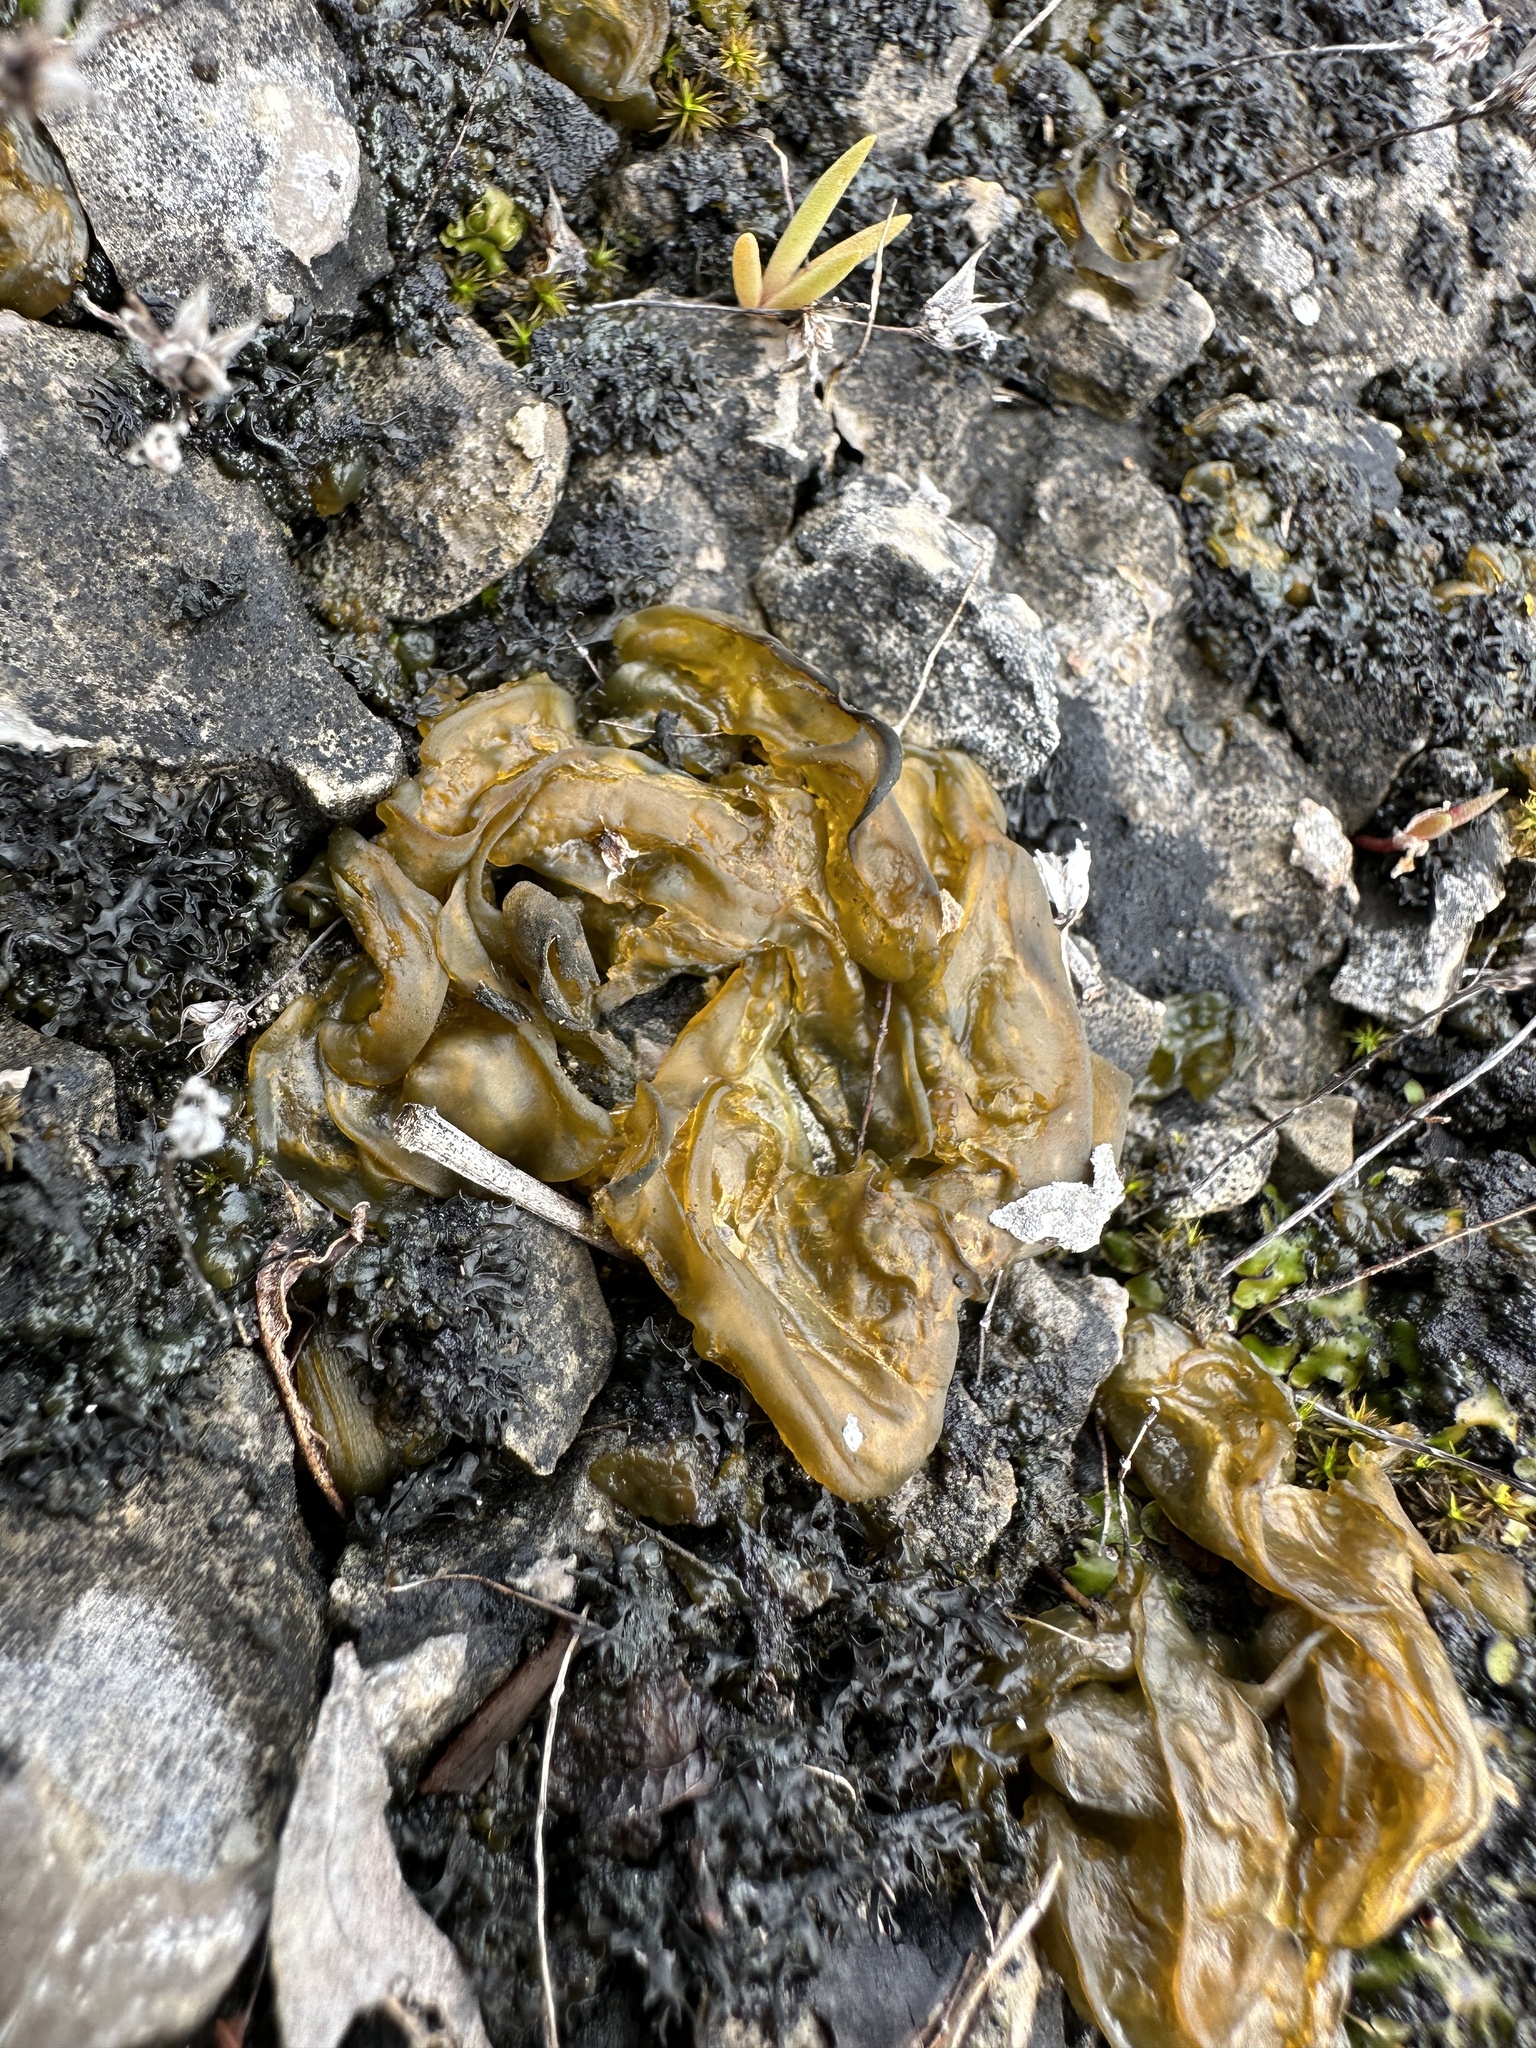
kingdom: Bacteria
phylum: Cyanobacteria
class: Cyanobacteriia
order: Cyanobacteriales
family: Nostocaceae
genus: Nostoc
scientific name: Nostoc commune
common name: Star jelly
